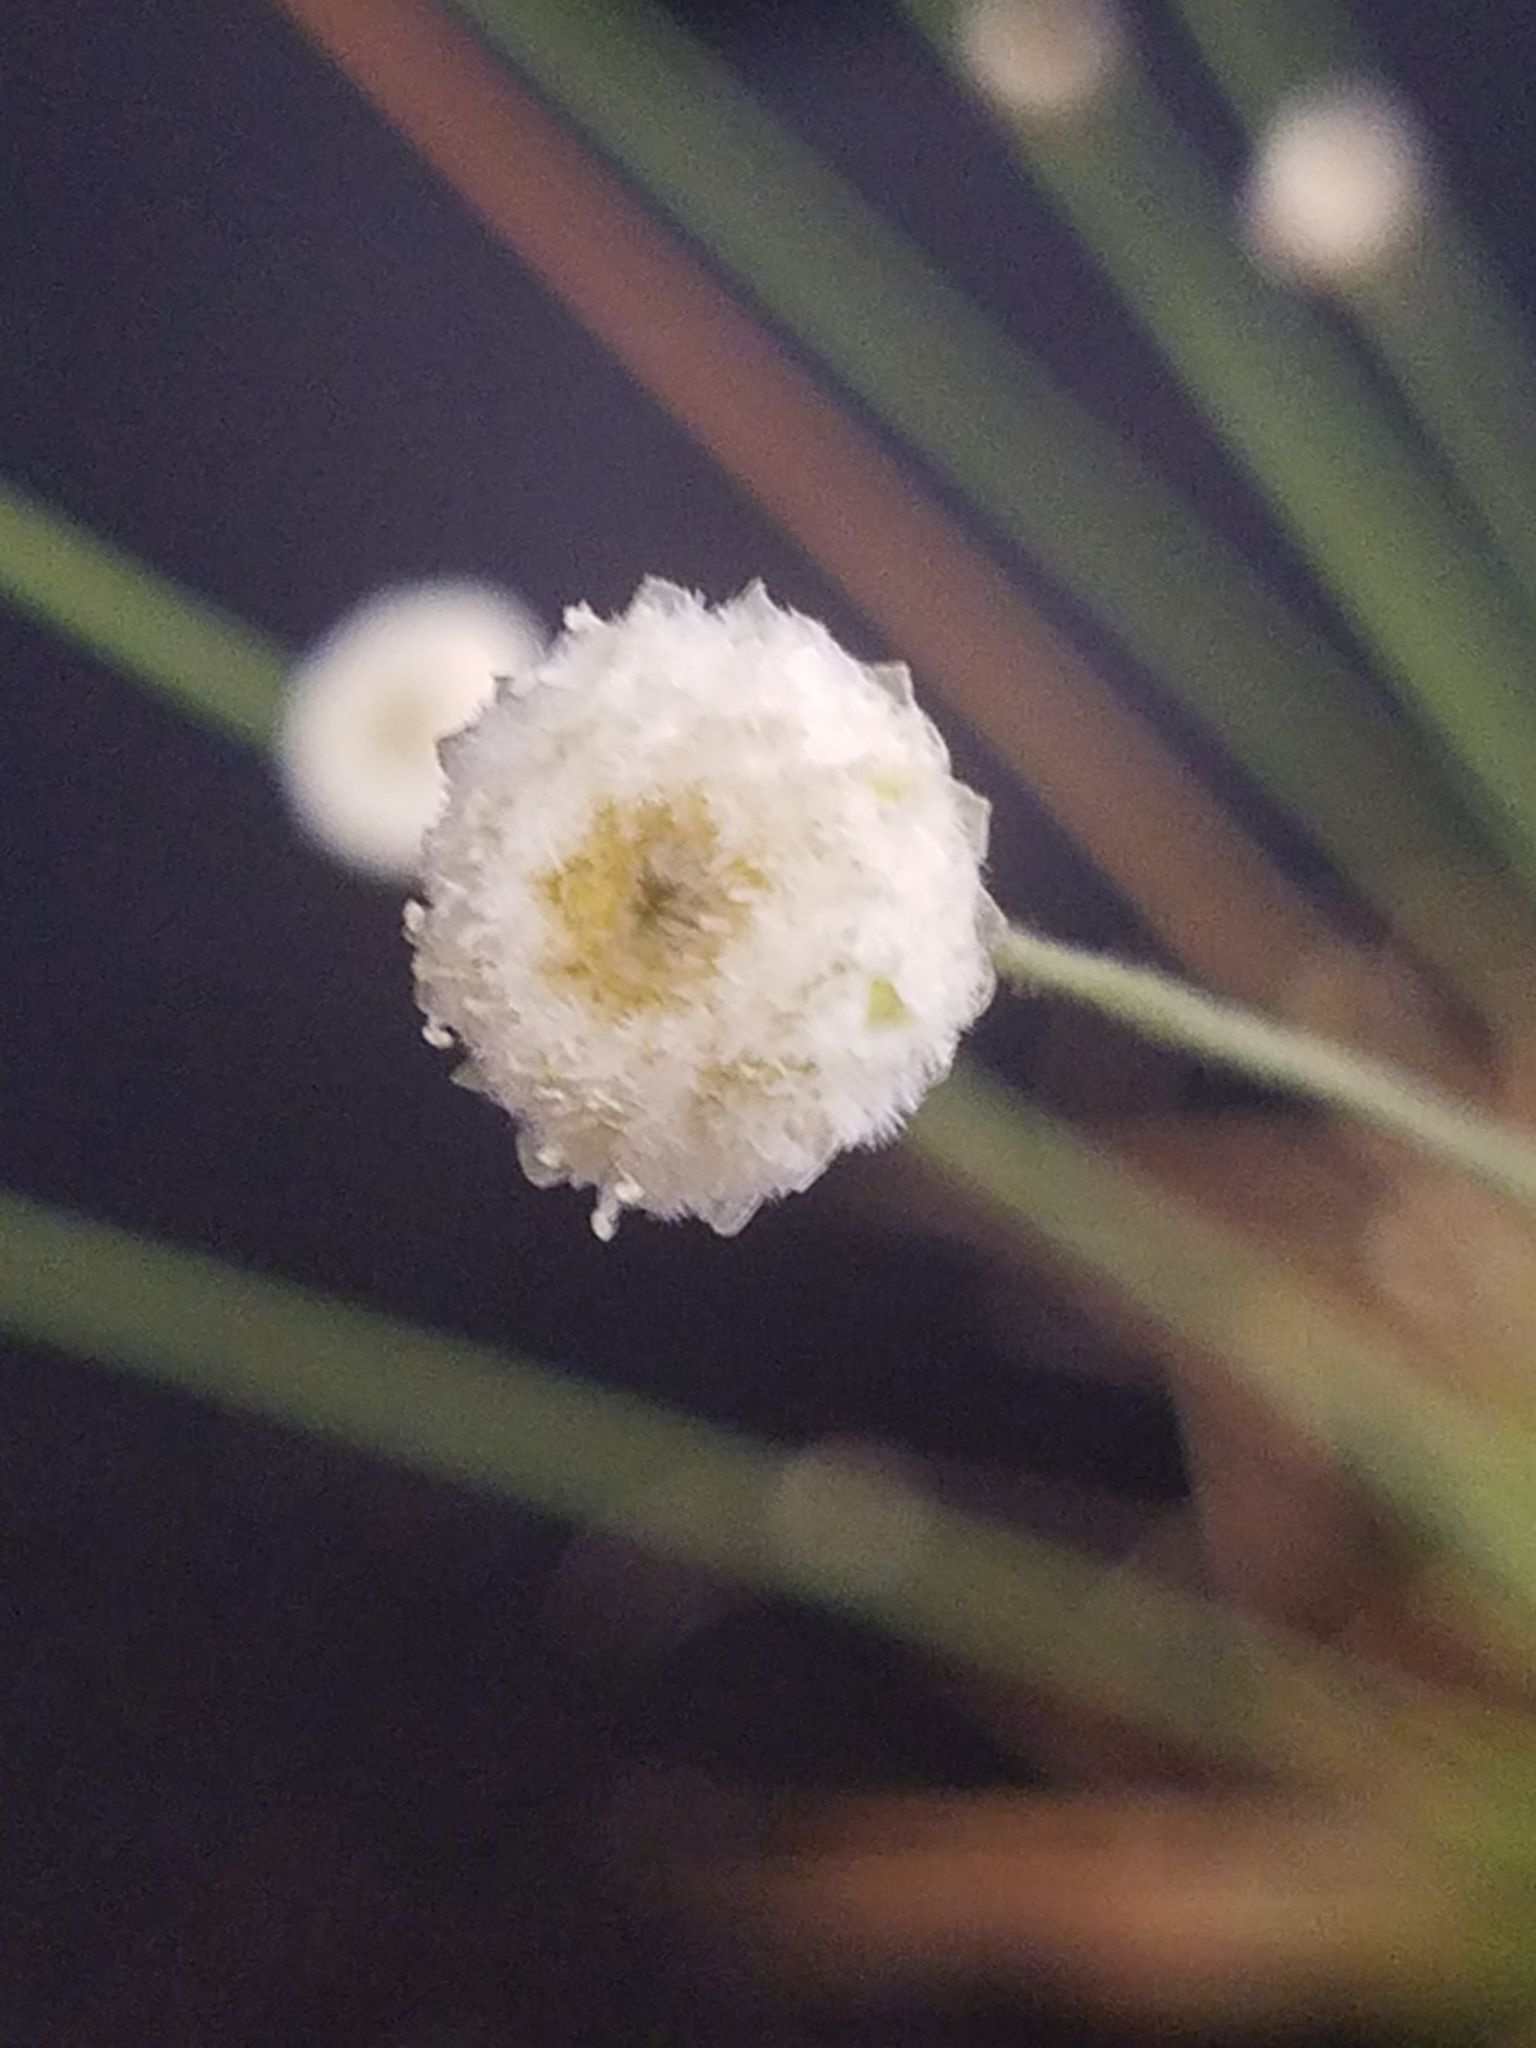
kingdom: Plantae
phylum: Tracheophyta
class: Liliopsida
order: Poales
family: Eriocaulaceae
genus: Syngonanthus
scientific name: Syngonanthus flavidulus
